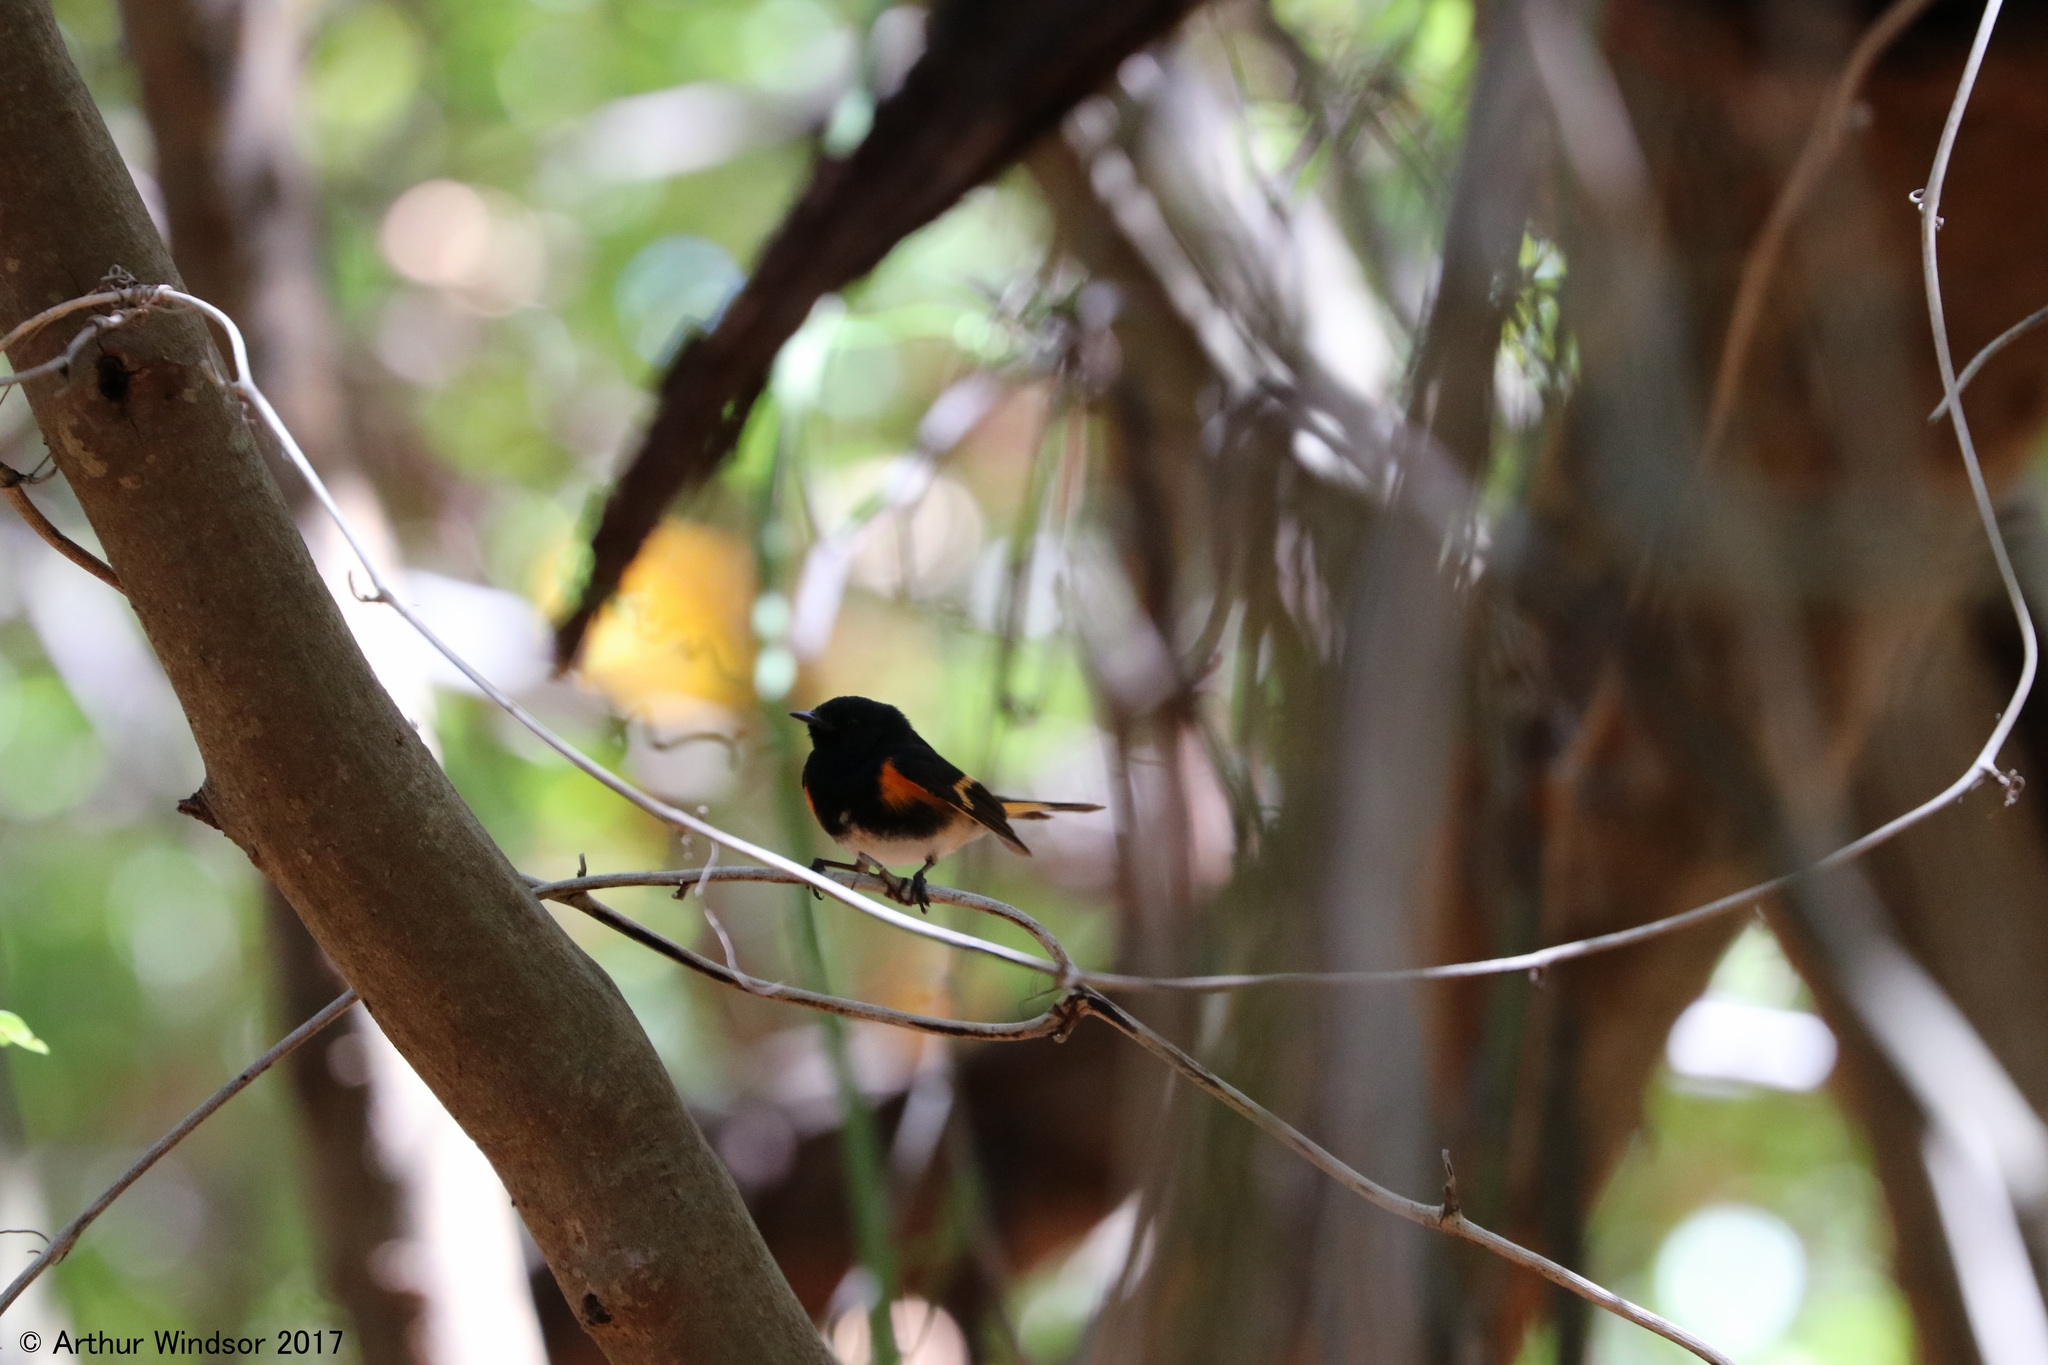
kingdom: Animalia
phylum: Chordata
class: Aves
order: Passeriformes
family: Parulidae
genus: Setophaga
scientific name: Setophaga ruticilla
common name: American redstart
